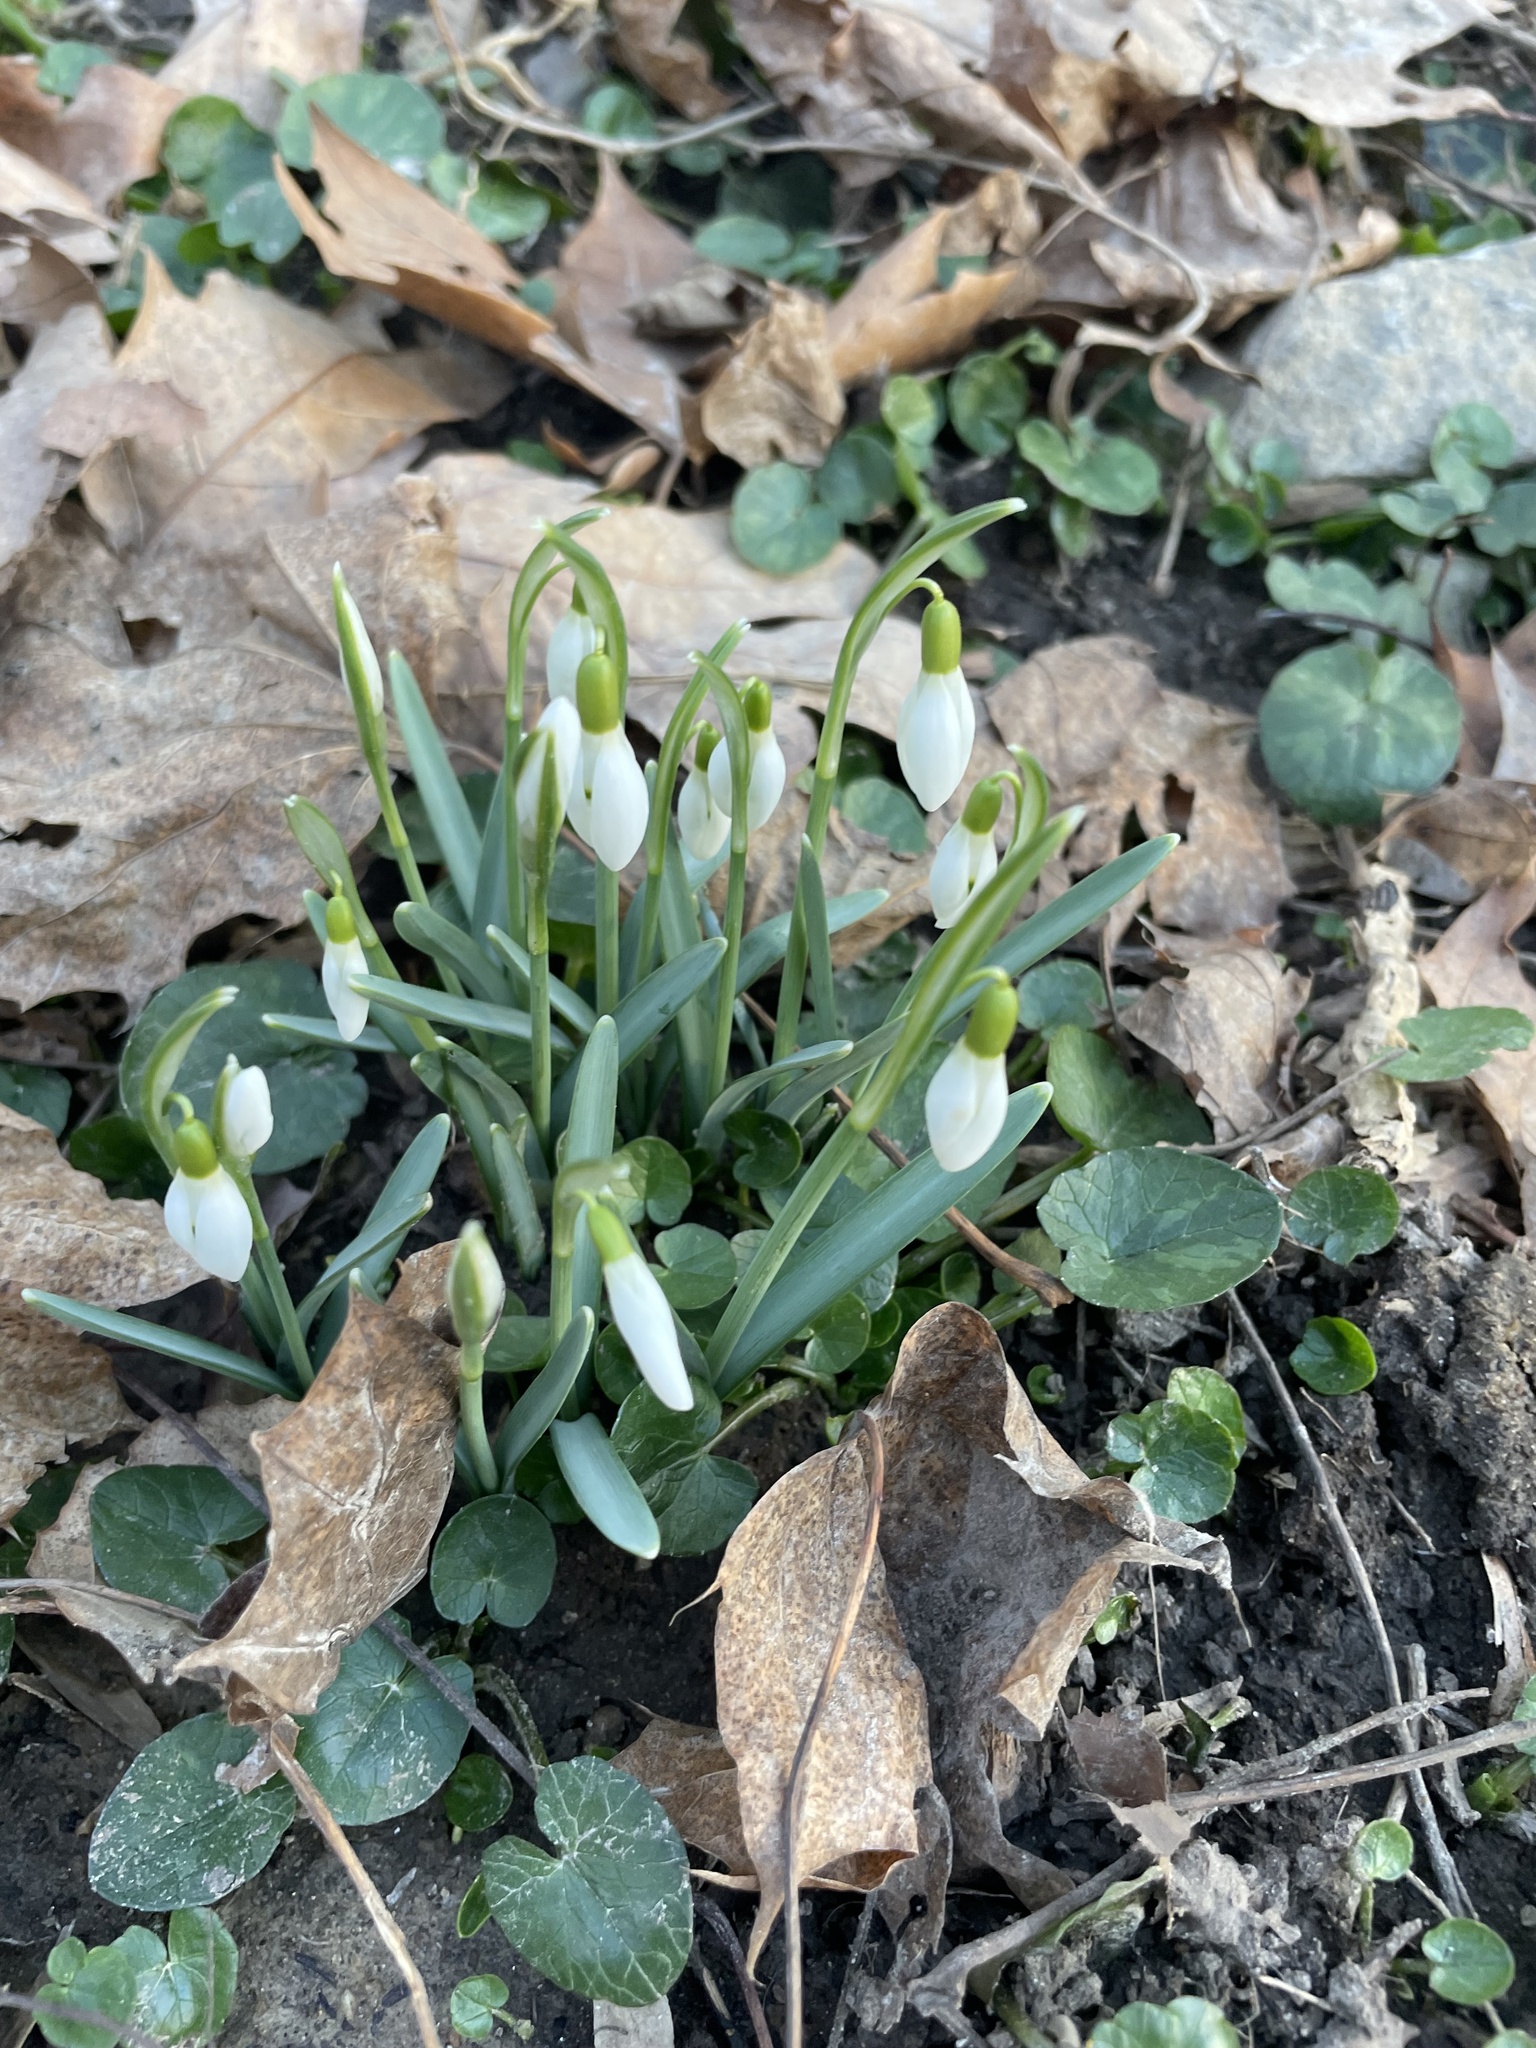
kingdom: Plantae
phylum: Tracheophyta
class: Liliopsida
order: Asparagales
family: Amaryllidaceae
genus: Galanthus
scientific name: Galanthus nivalis
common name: Snowdrop
